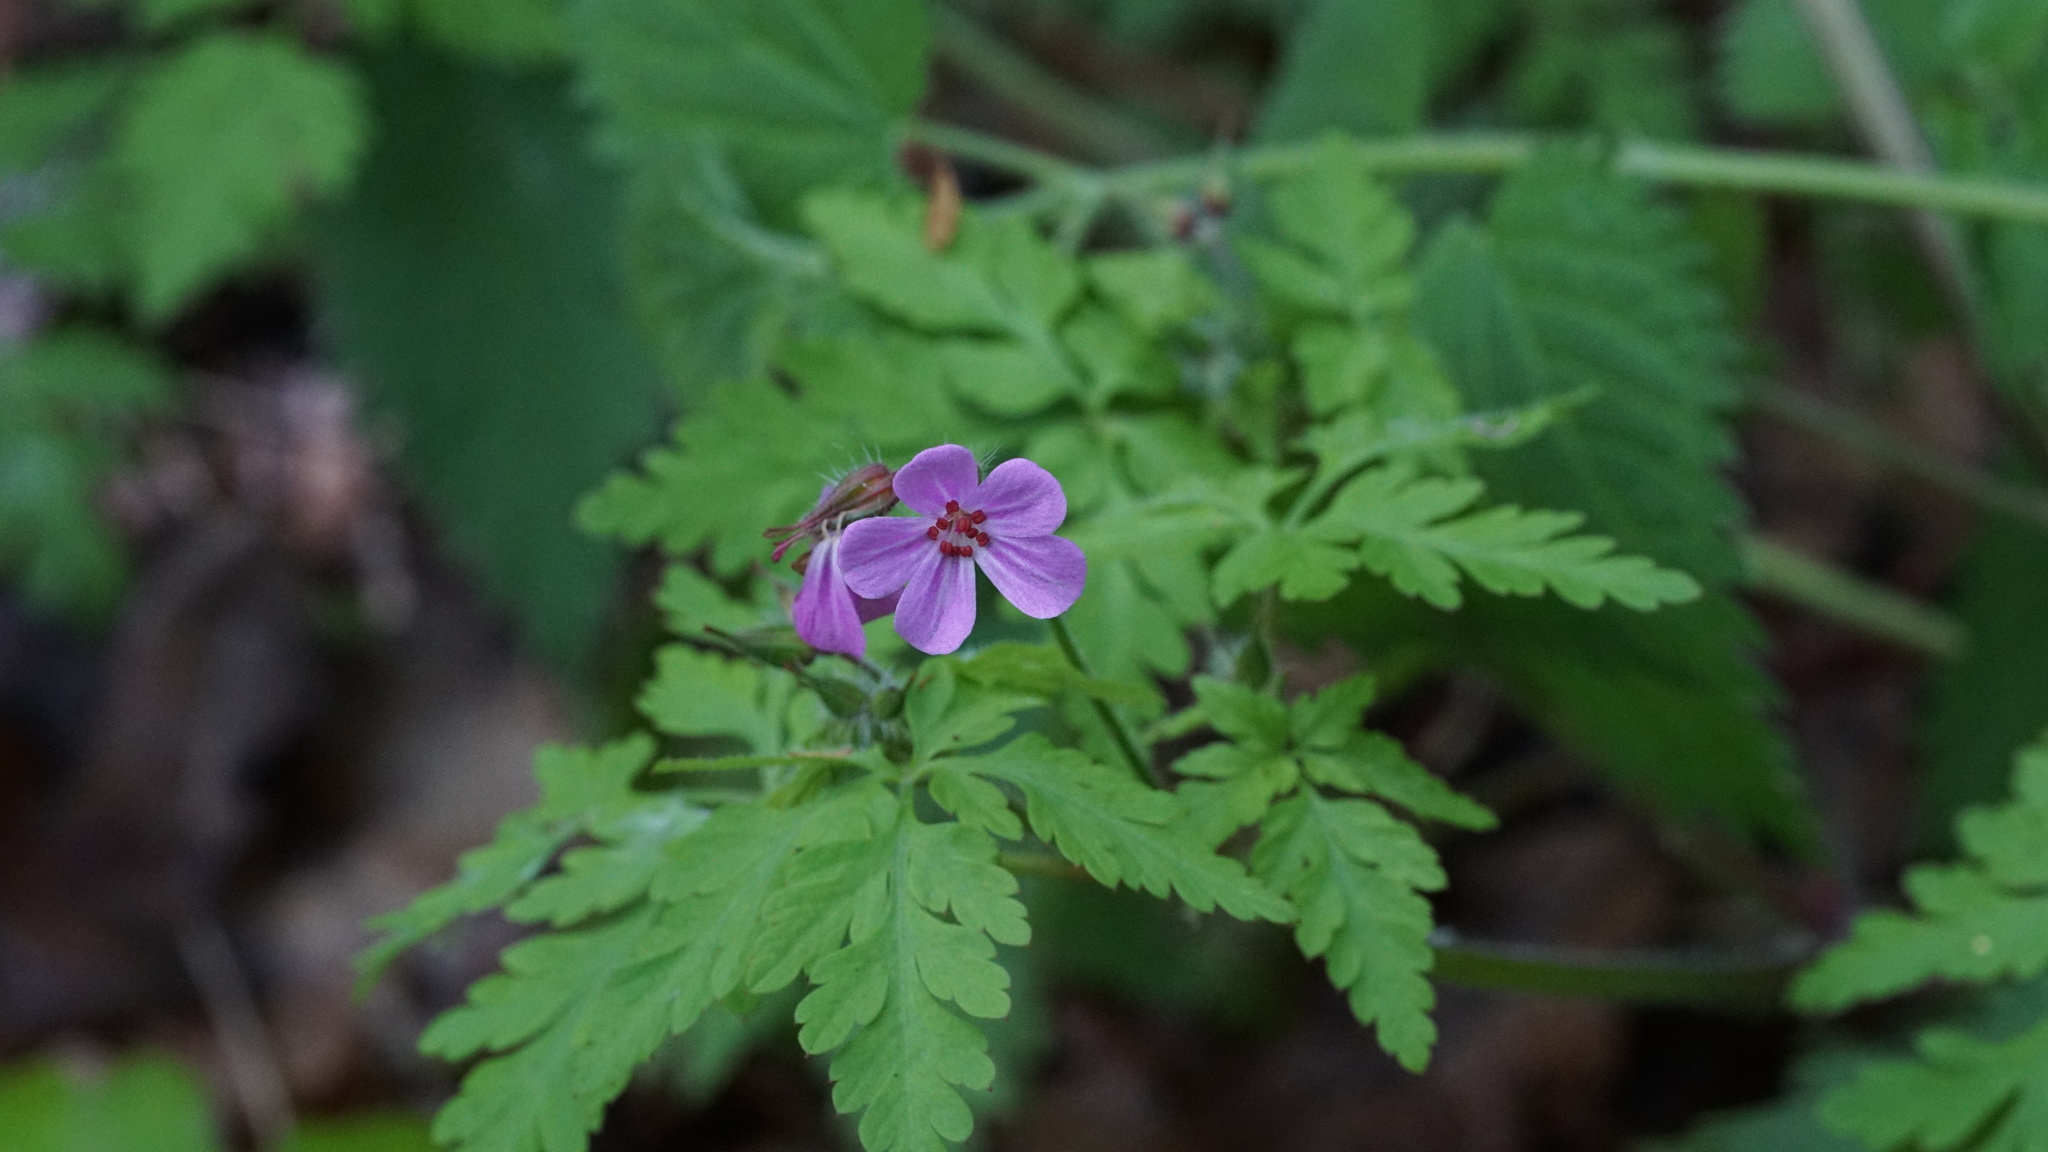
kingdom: Plantae
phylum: Tracheophyta
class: Magnoliopsida
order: Geraniales
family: Geraniaceae
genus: Geranium
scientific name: Geranium robertianum
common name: Herb-robert
